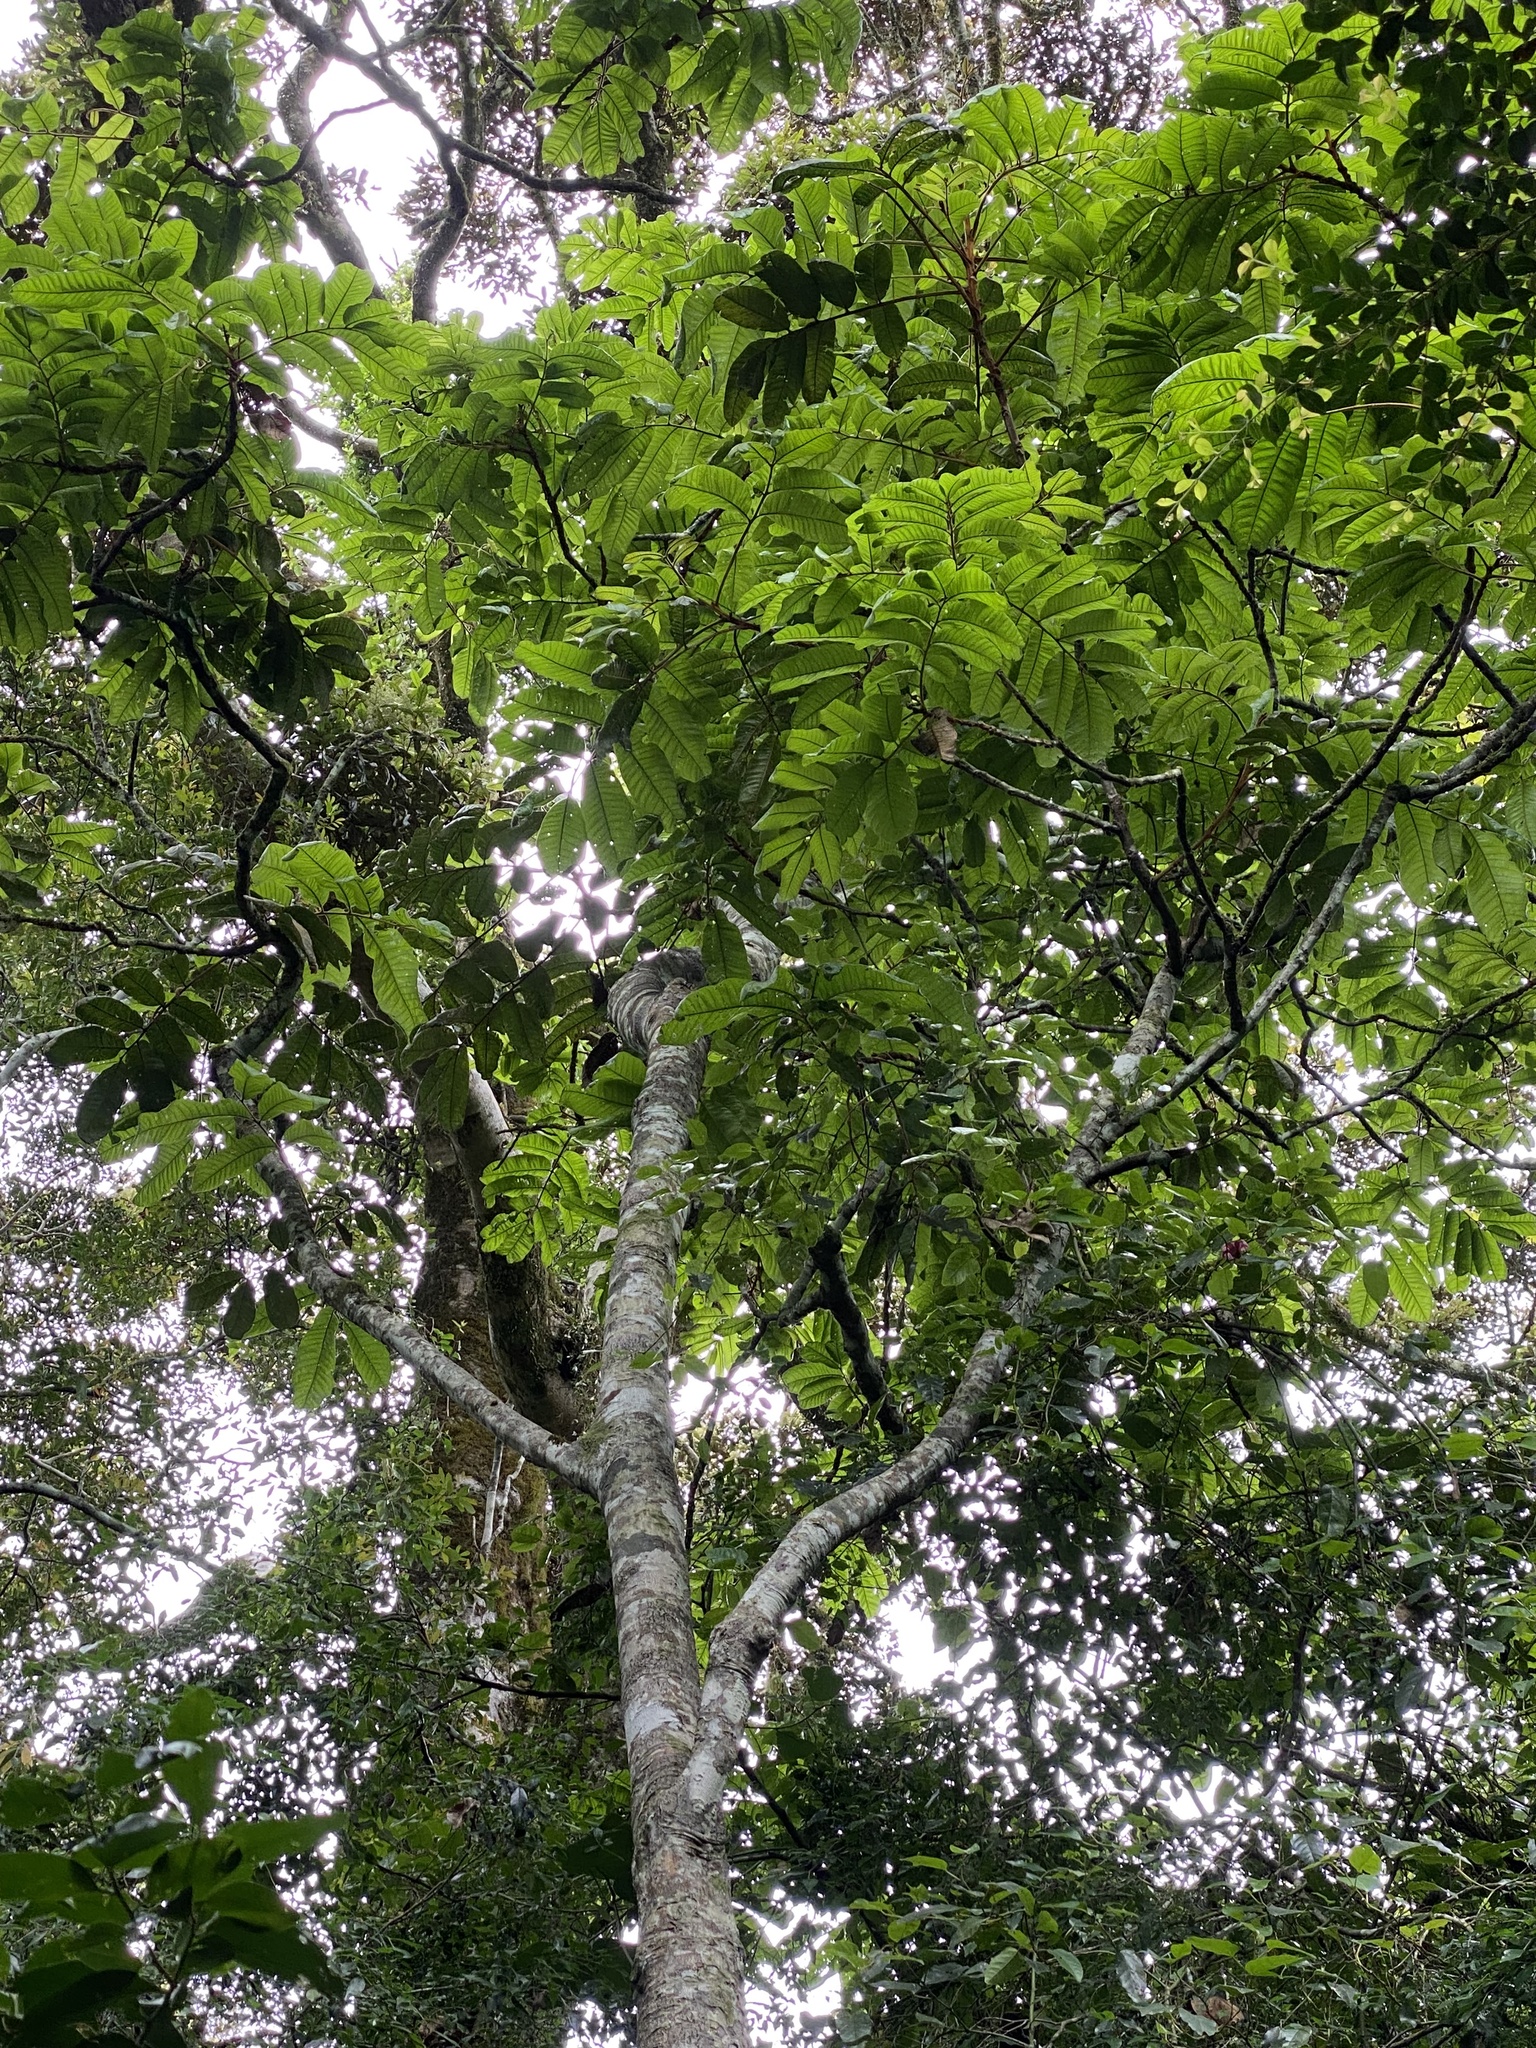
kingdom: Plantae
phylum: Tracheophyta
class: Magnoliopsida
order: Sapindales
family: Sapindaceae
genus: Diploglottis
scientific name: Diploglottis australis
